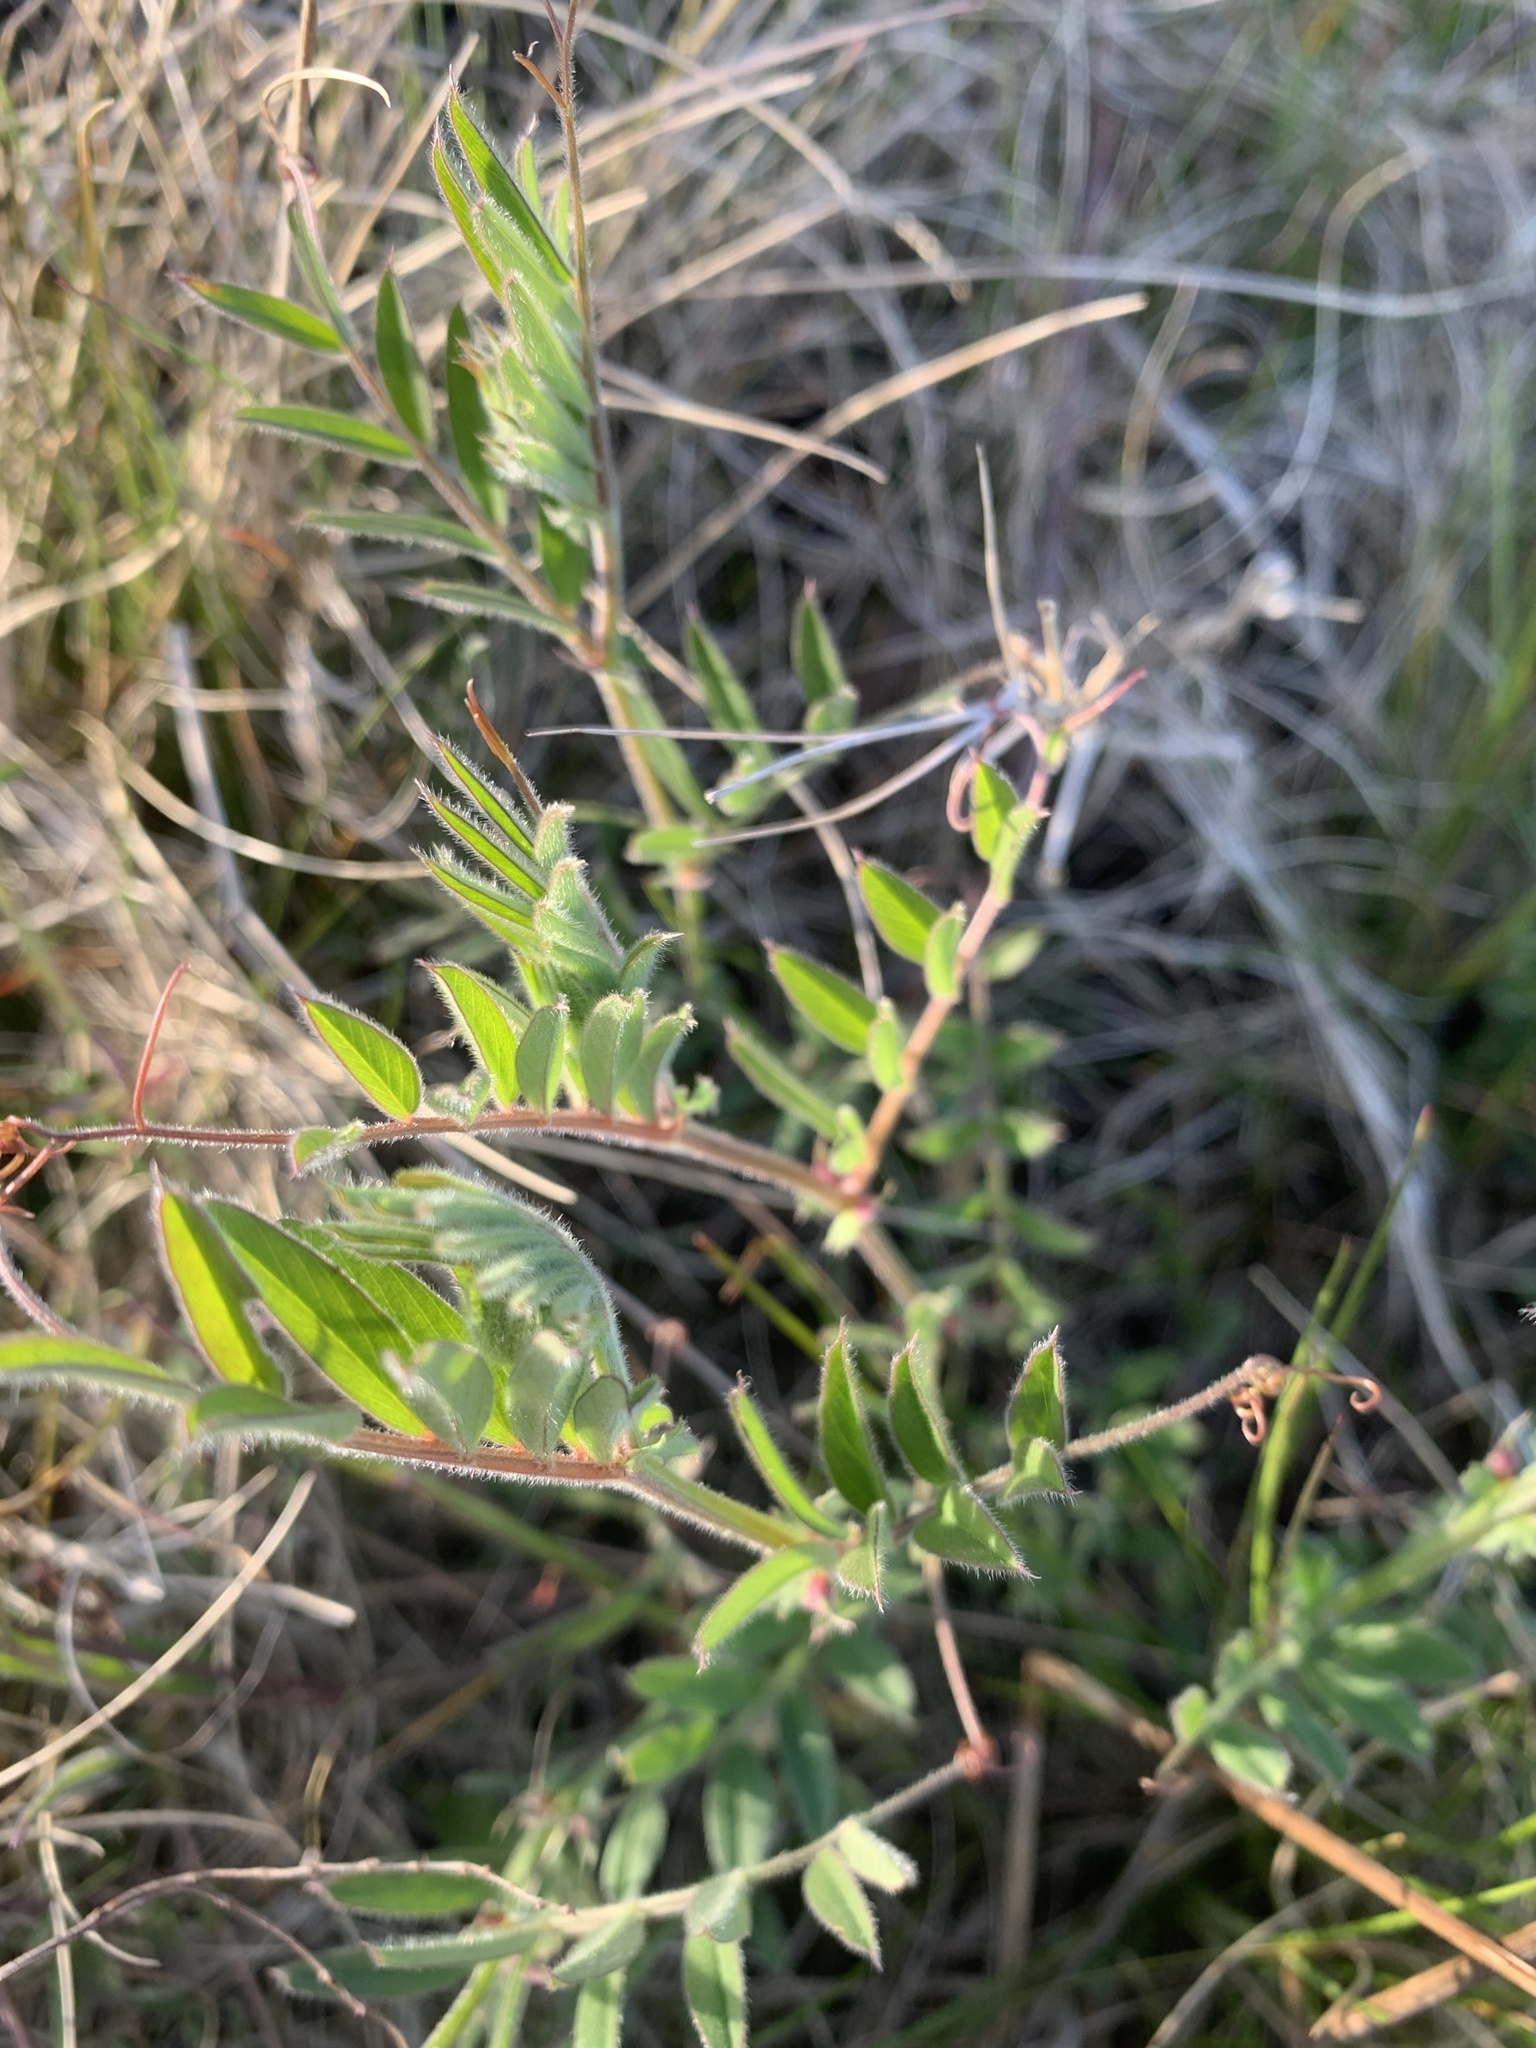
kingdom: Plantae
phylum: Tracheophyta
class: Magnoliopsida
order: Fabales
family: Fabaceae
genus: Vicia
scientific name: Vicia sativa
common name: Garden vetch
